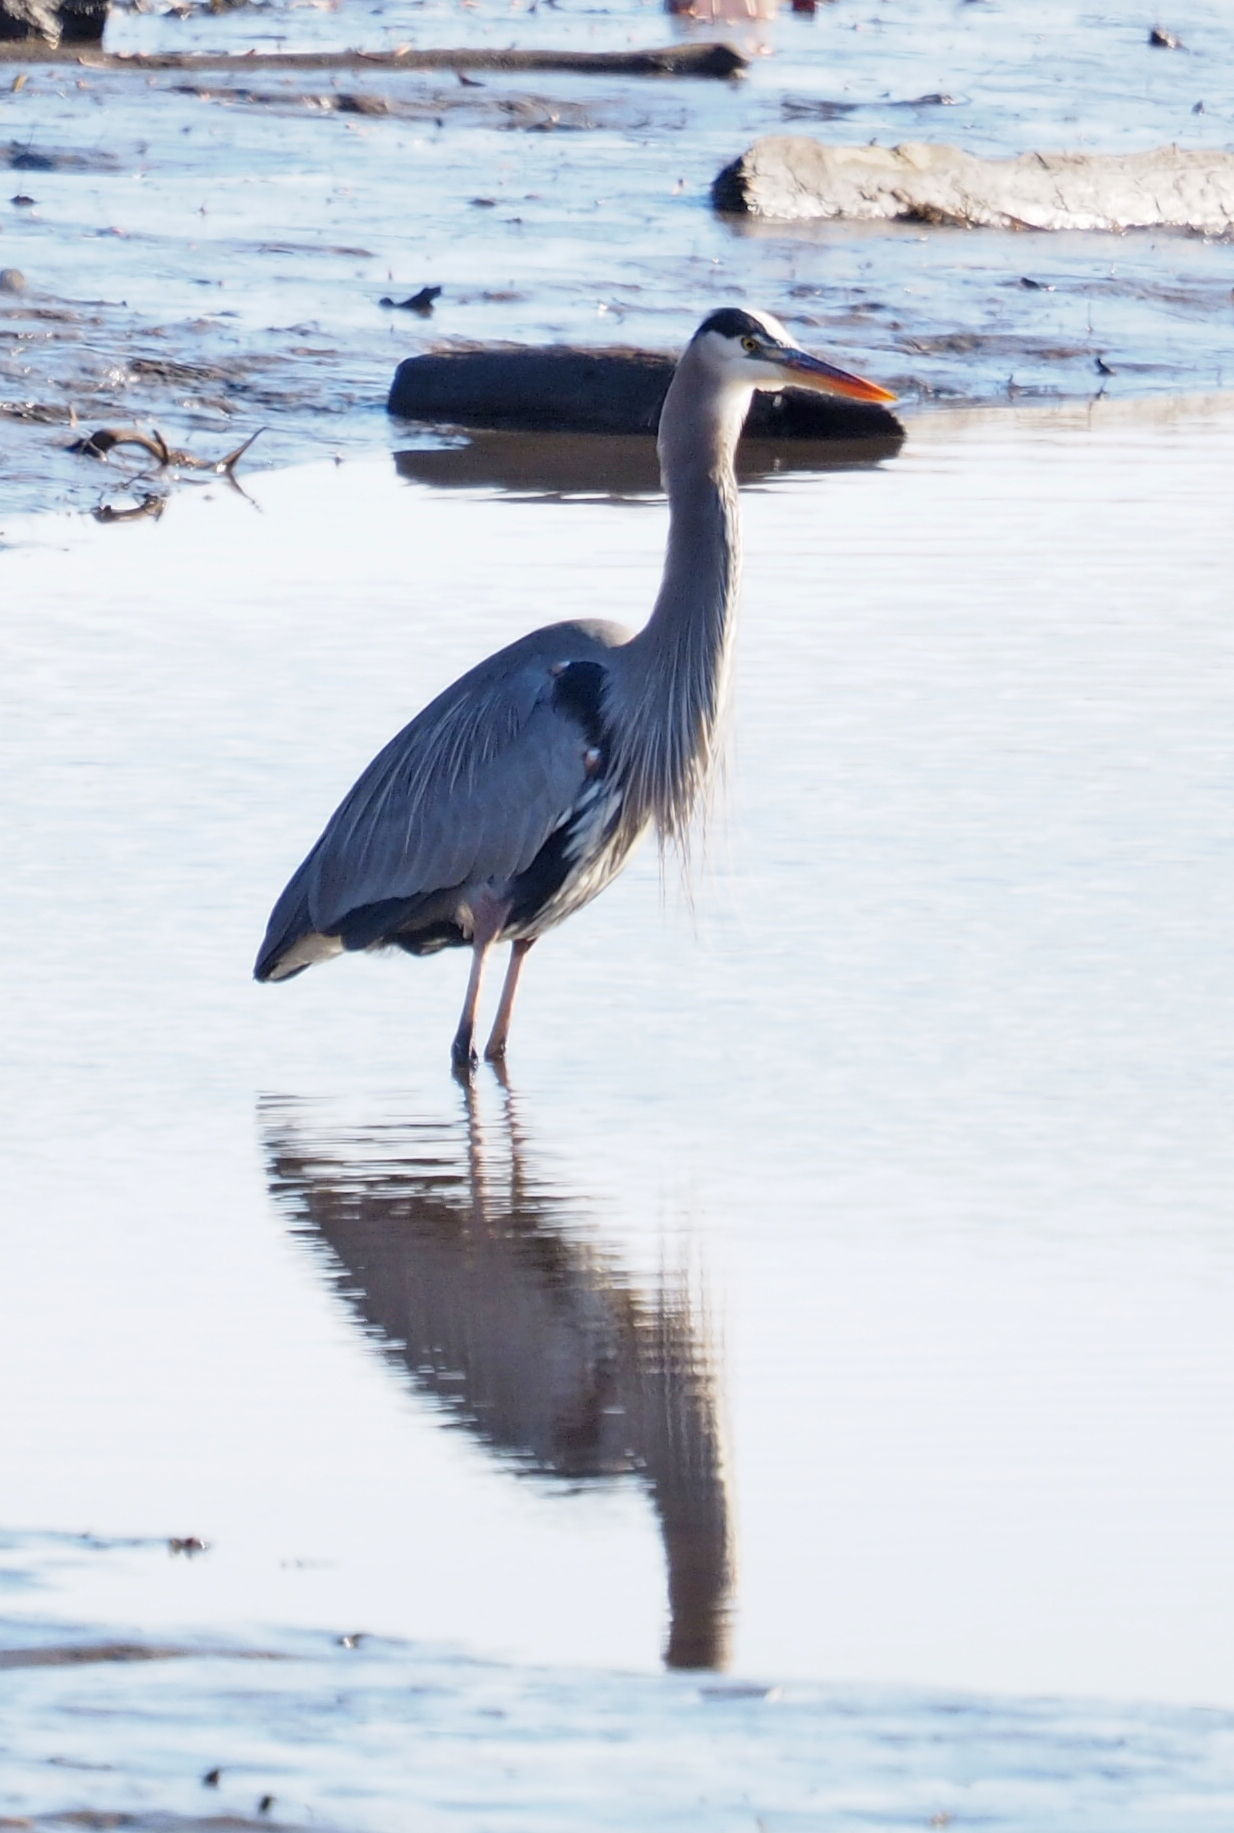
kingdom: Animalia
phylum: Chordata
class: Aves
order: Pelecaniformes
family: Ardeidae
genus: Ardea
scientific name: Ardea herodias
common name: Great blue heron
